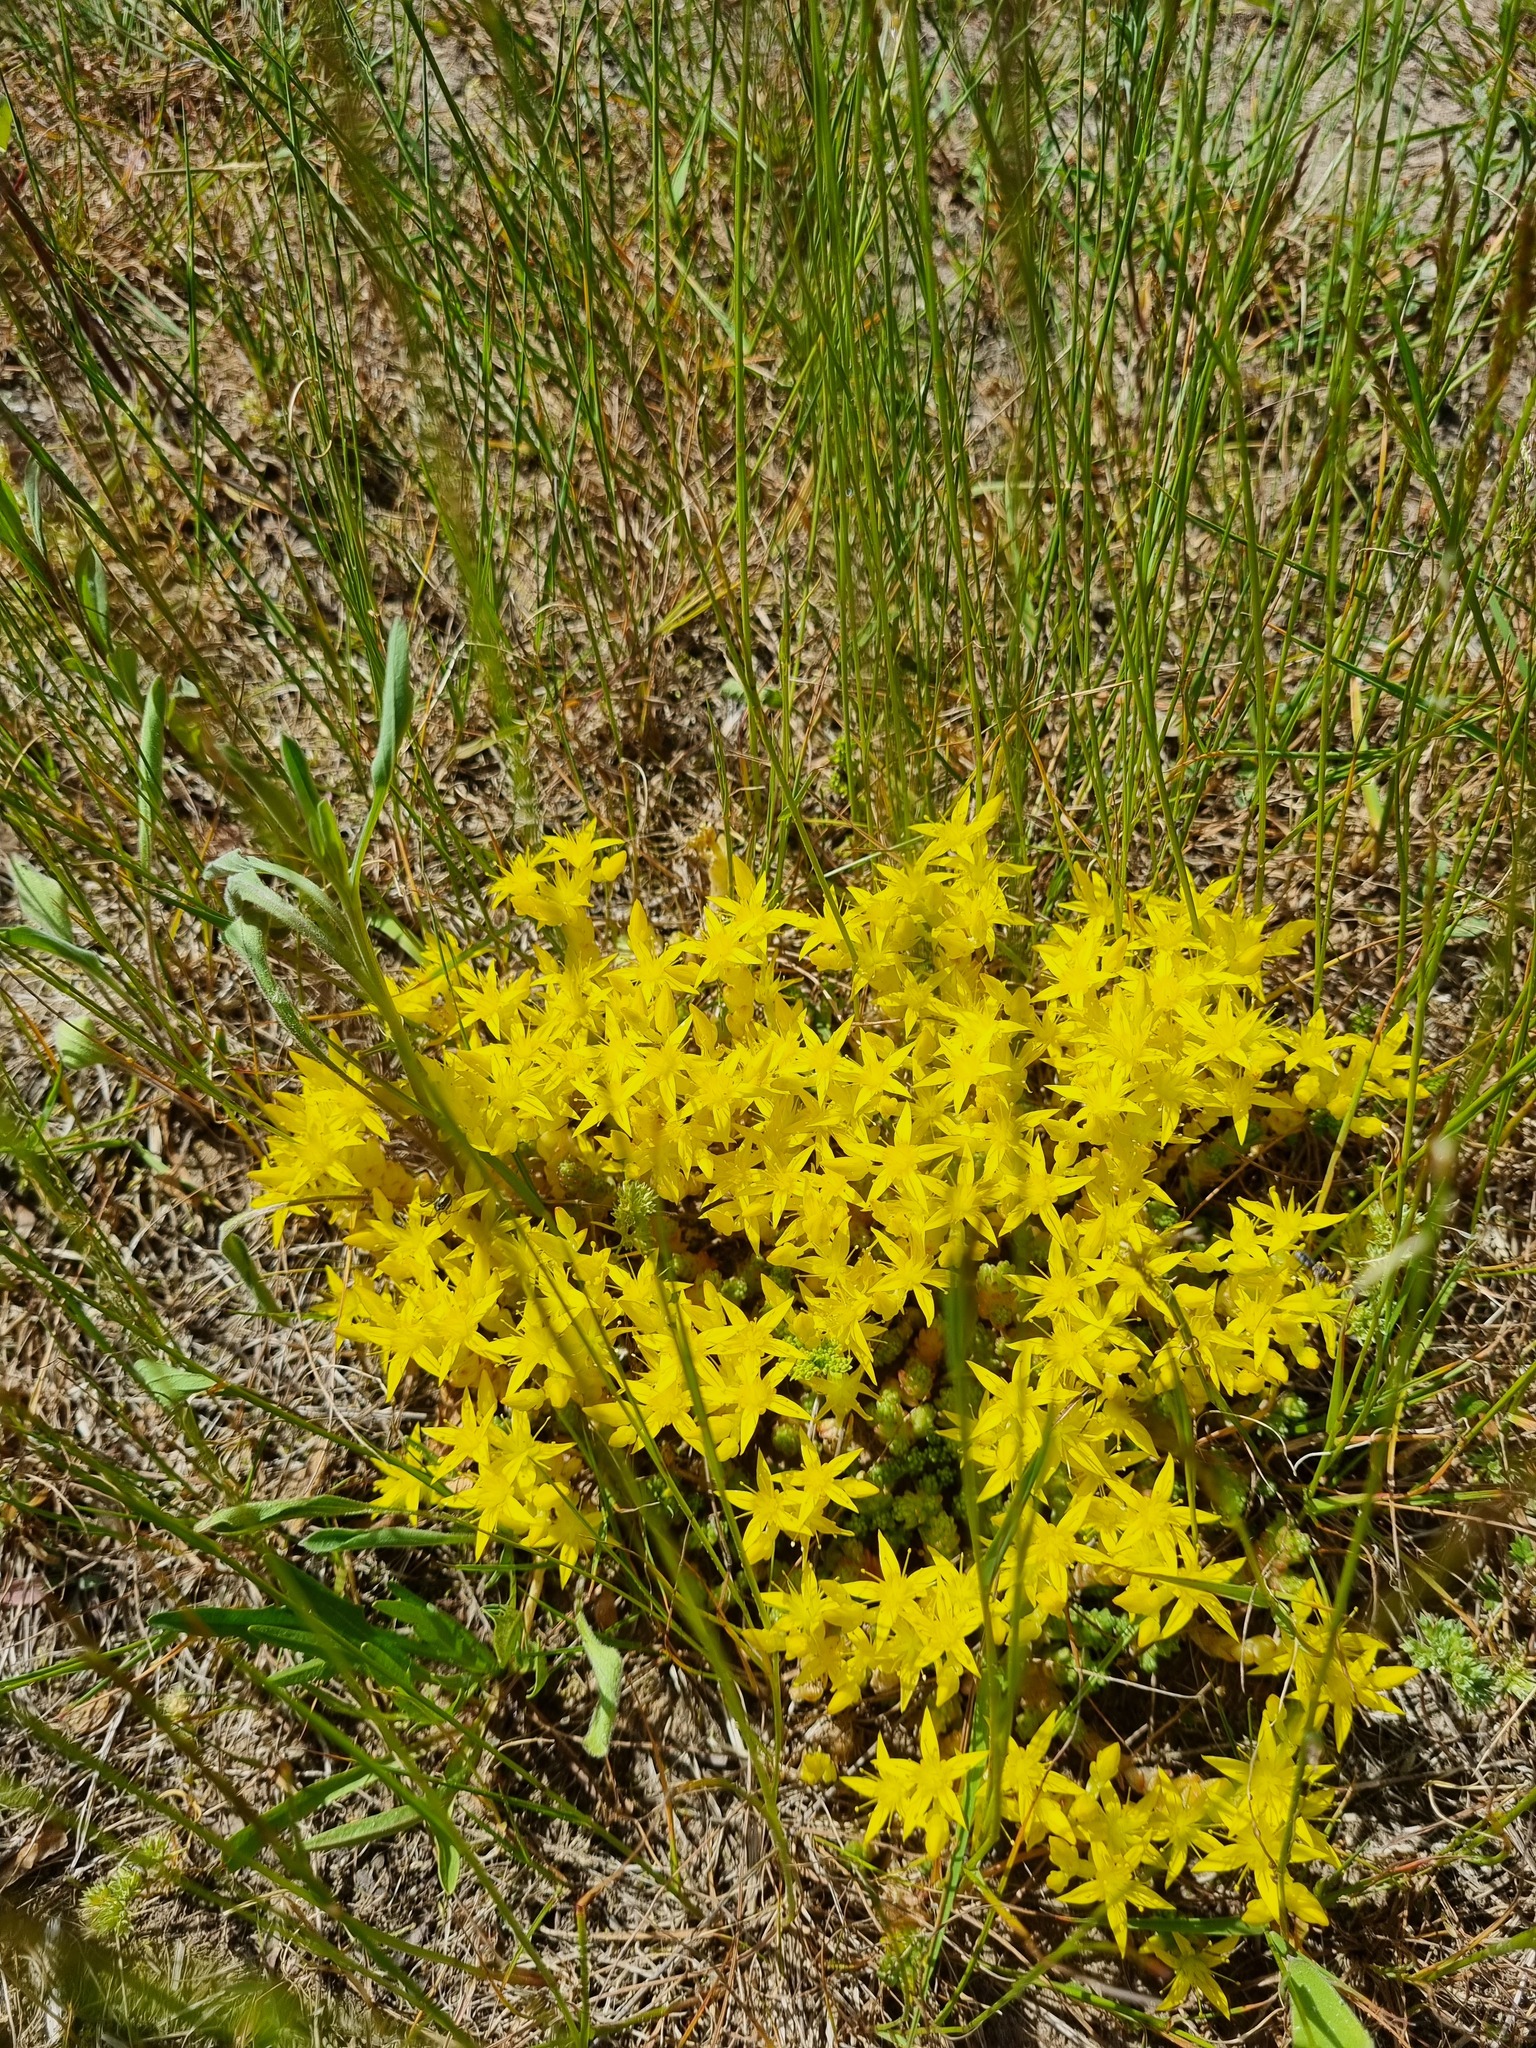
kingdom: Plantae
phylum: Tracheophyta
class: Magnoliopsida
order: Saxifragales
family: Crassulaceae
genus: Sedum
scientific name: Sedum acre
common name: Biting stonecrop
